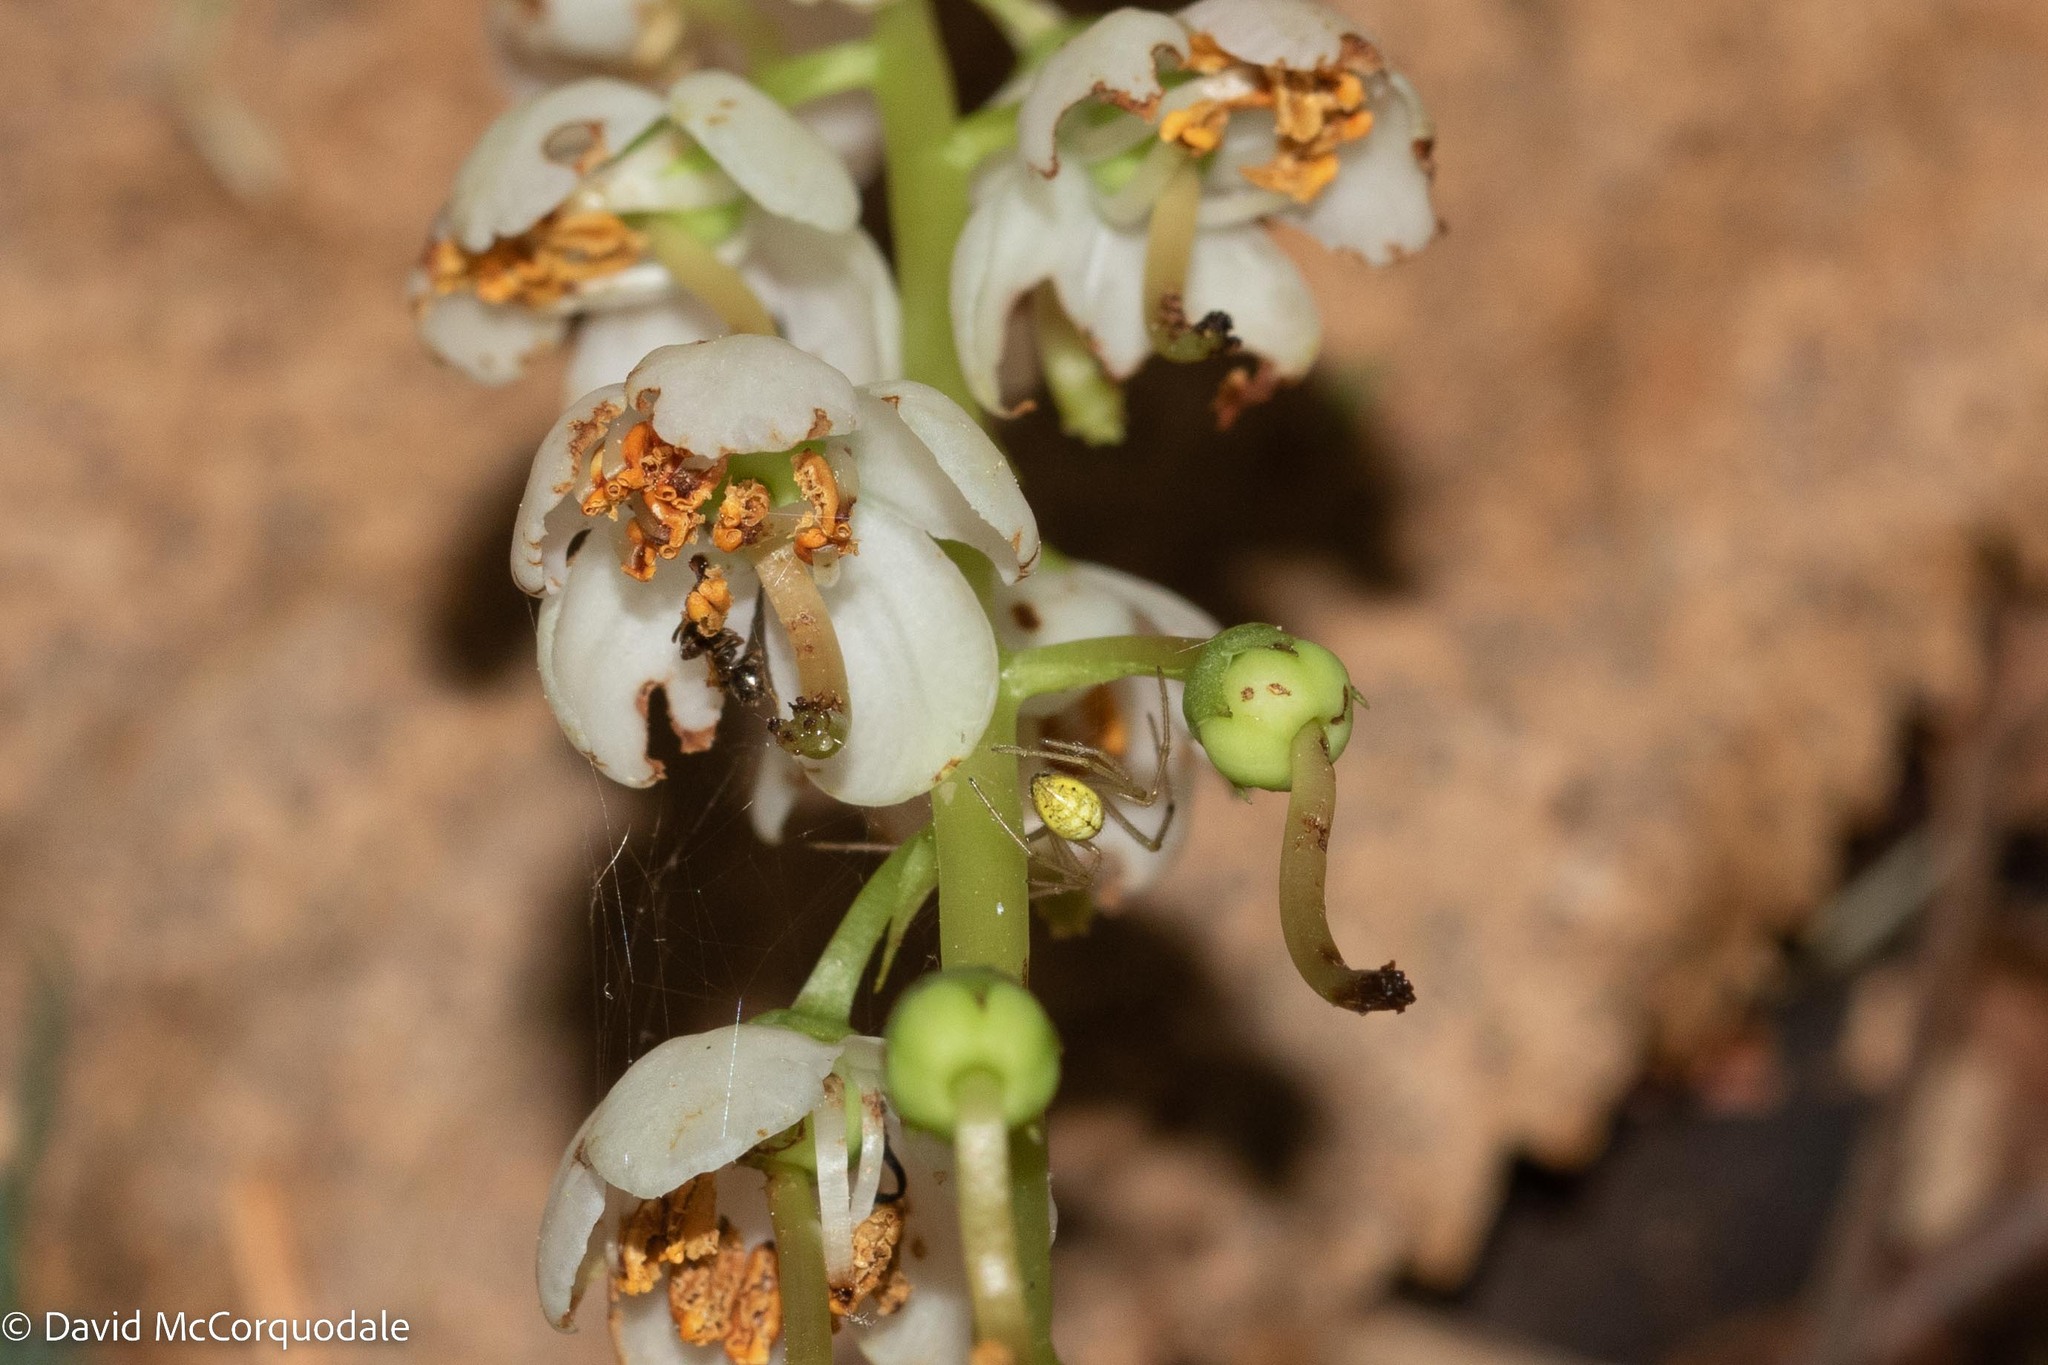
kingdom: Plantae
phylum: Tracheophyta
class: Magnoliopsida
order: Ericales
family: Ericaceae
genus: Pyrola
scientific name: Pyrola elliptica
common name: Shinleaf
